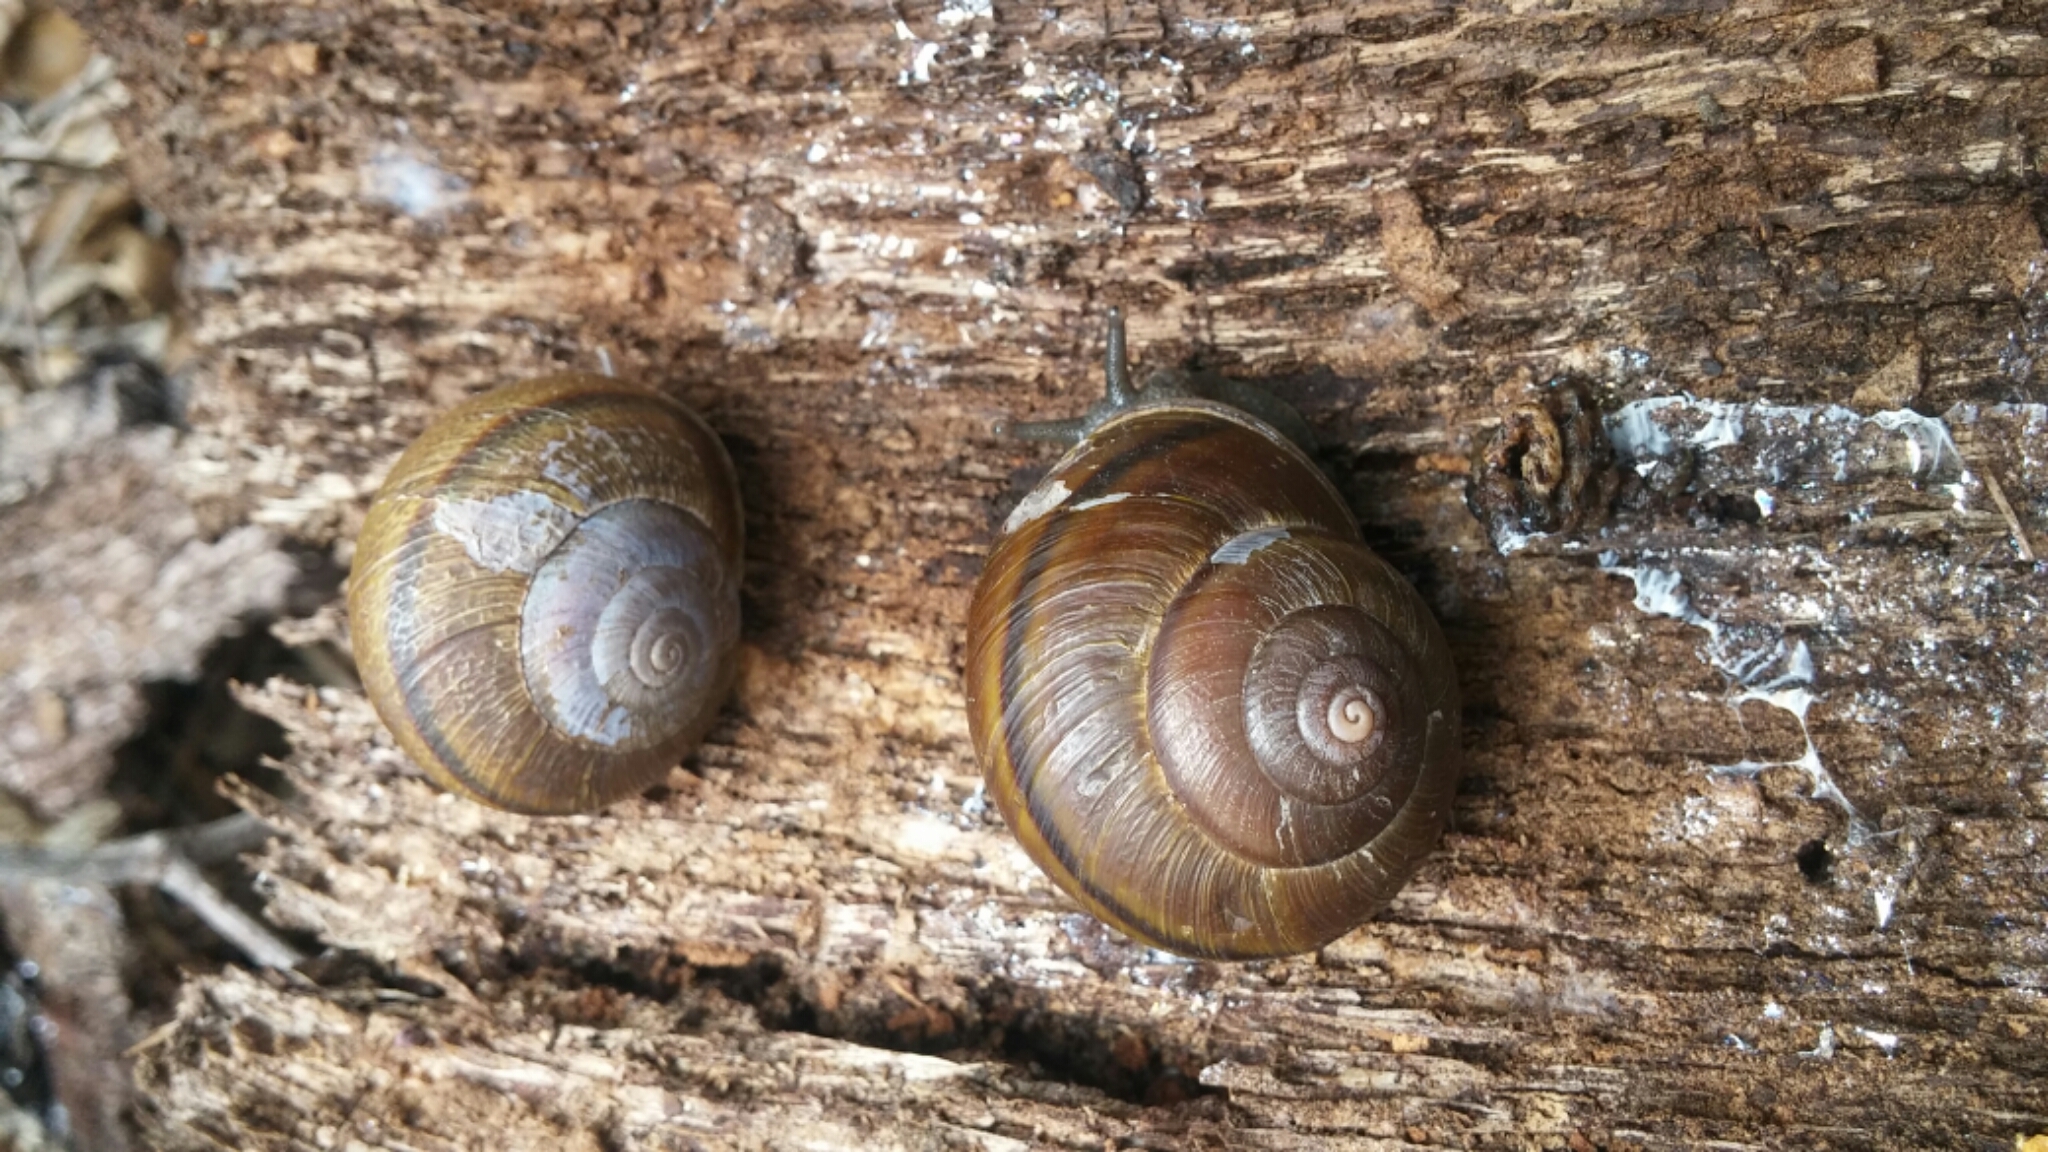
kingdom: Animalia
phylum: Mollusca
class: Gastropoda
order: Stylommatophora
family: Xanthonychidae
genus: Helminthoglypta
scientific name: Helminthoglypta tudiculata
